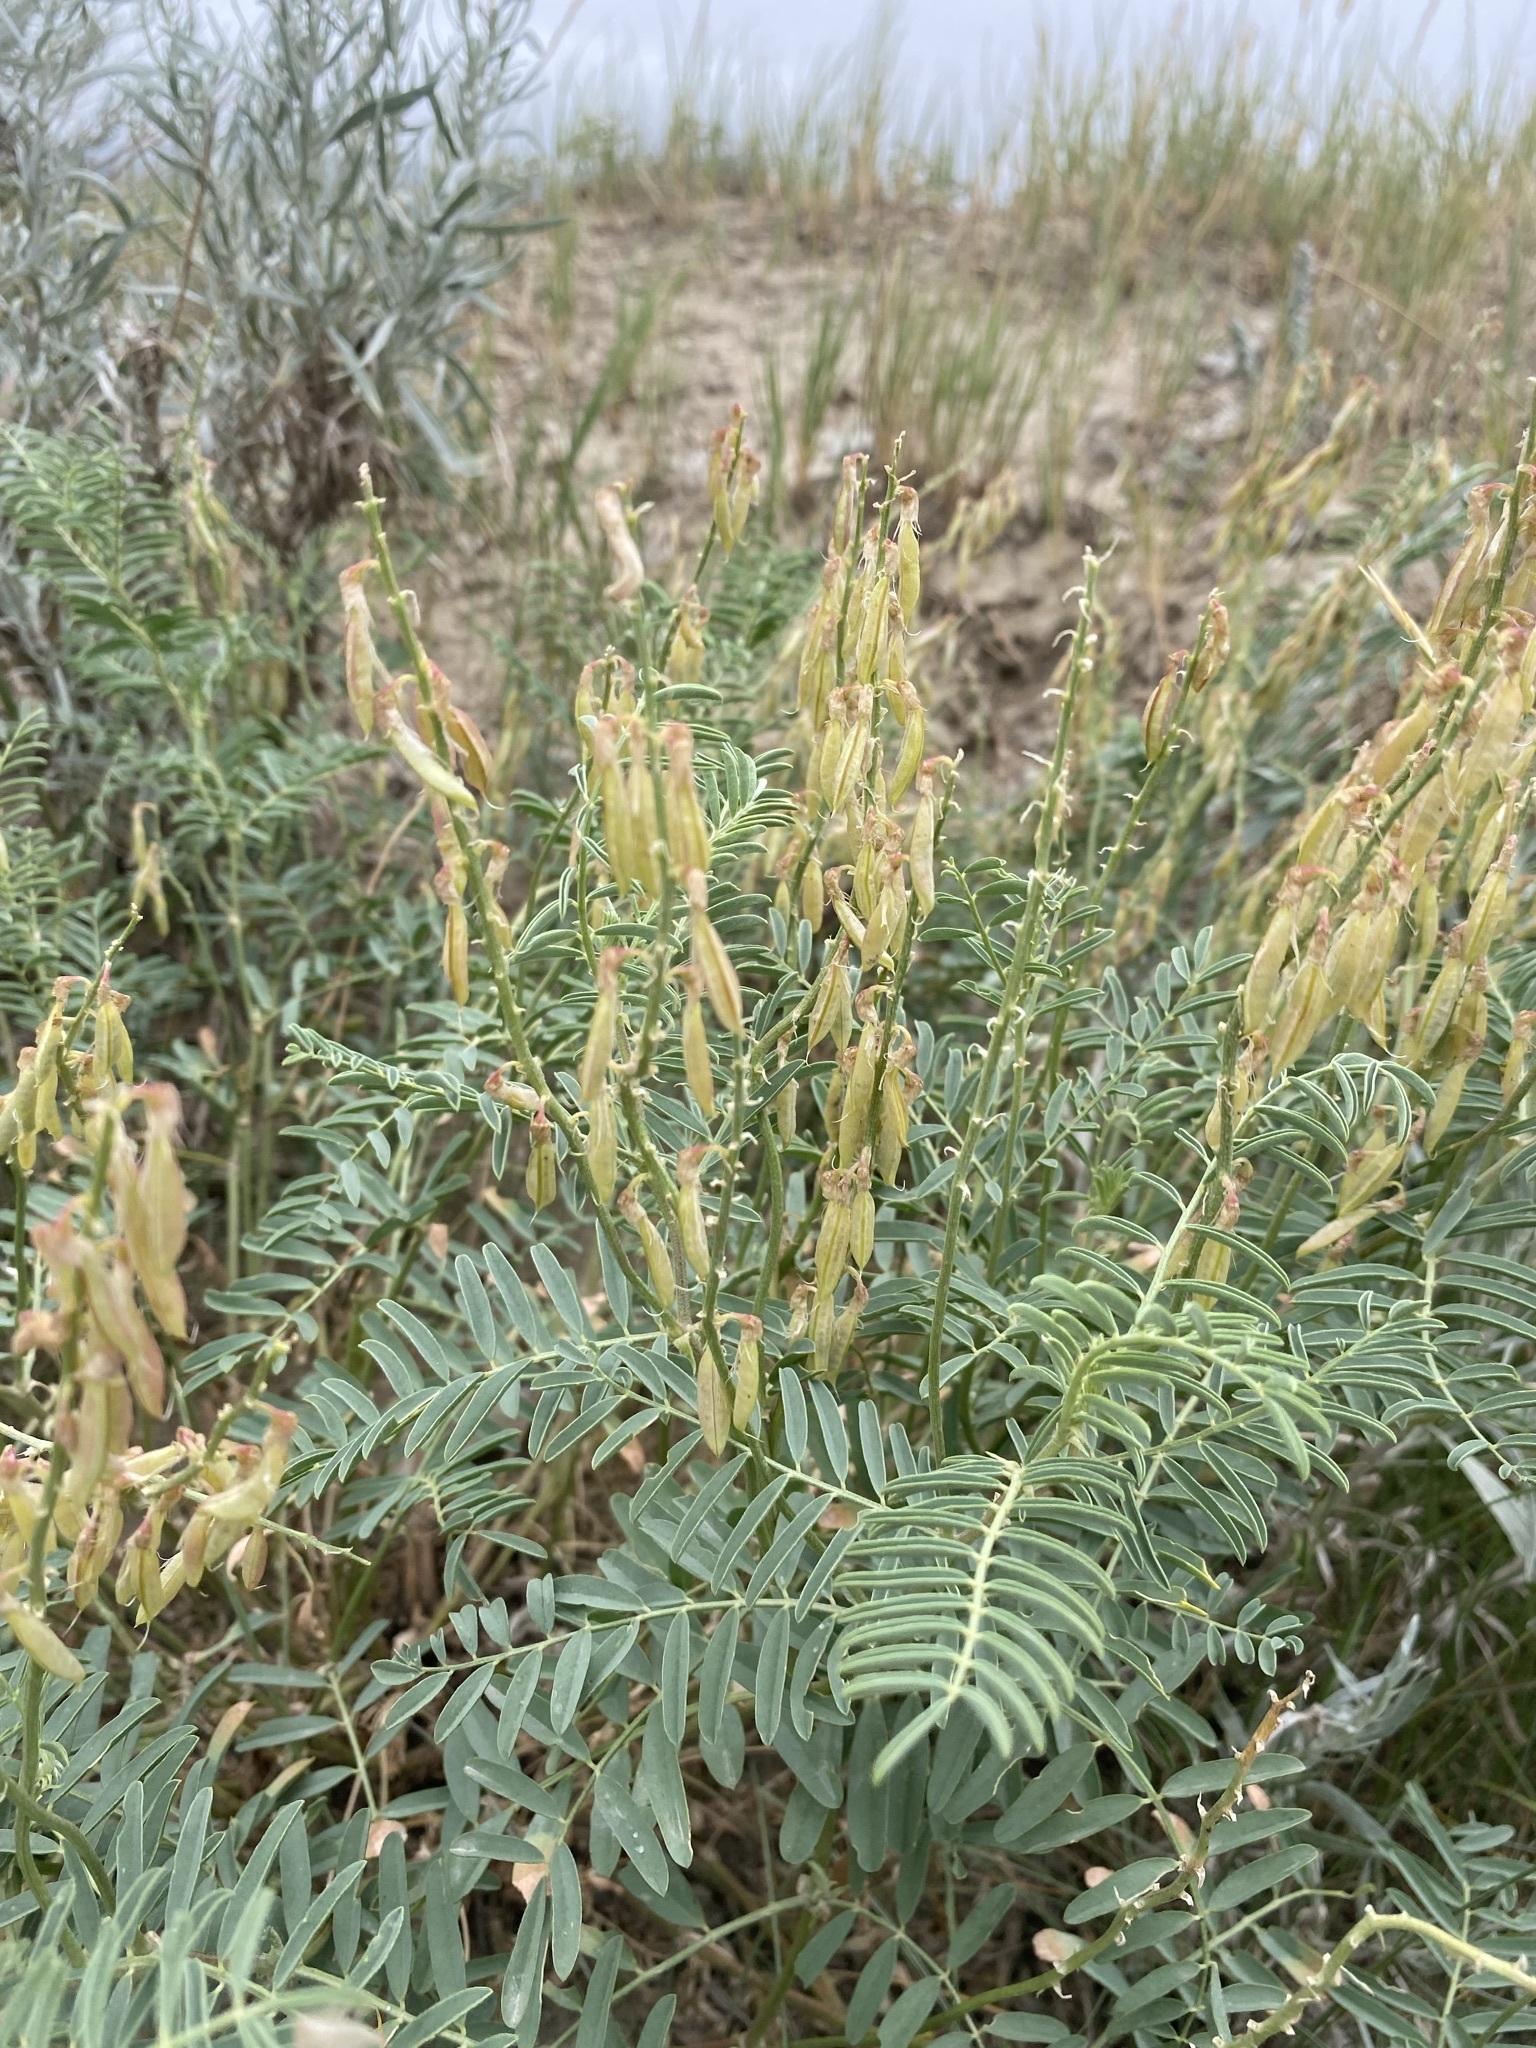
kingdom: Plantae
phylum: Tracheophyta
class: Magnoliopsida
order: Fabales
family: Fabaceae
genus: Astragalus
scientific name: Astragalus bisulcatus
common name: Two-groove milk-vetch
